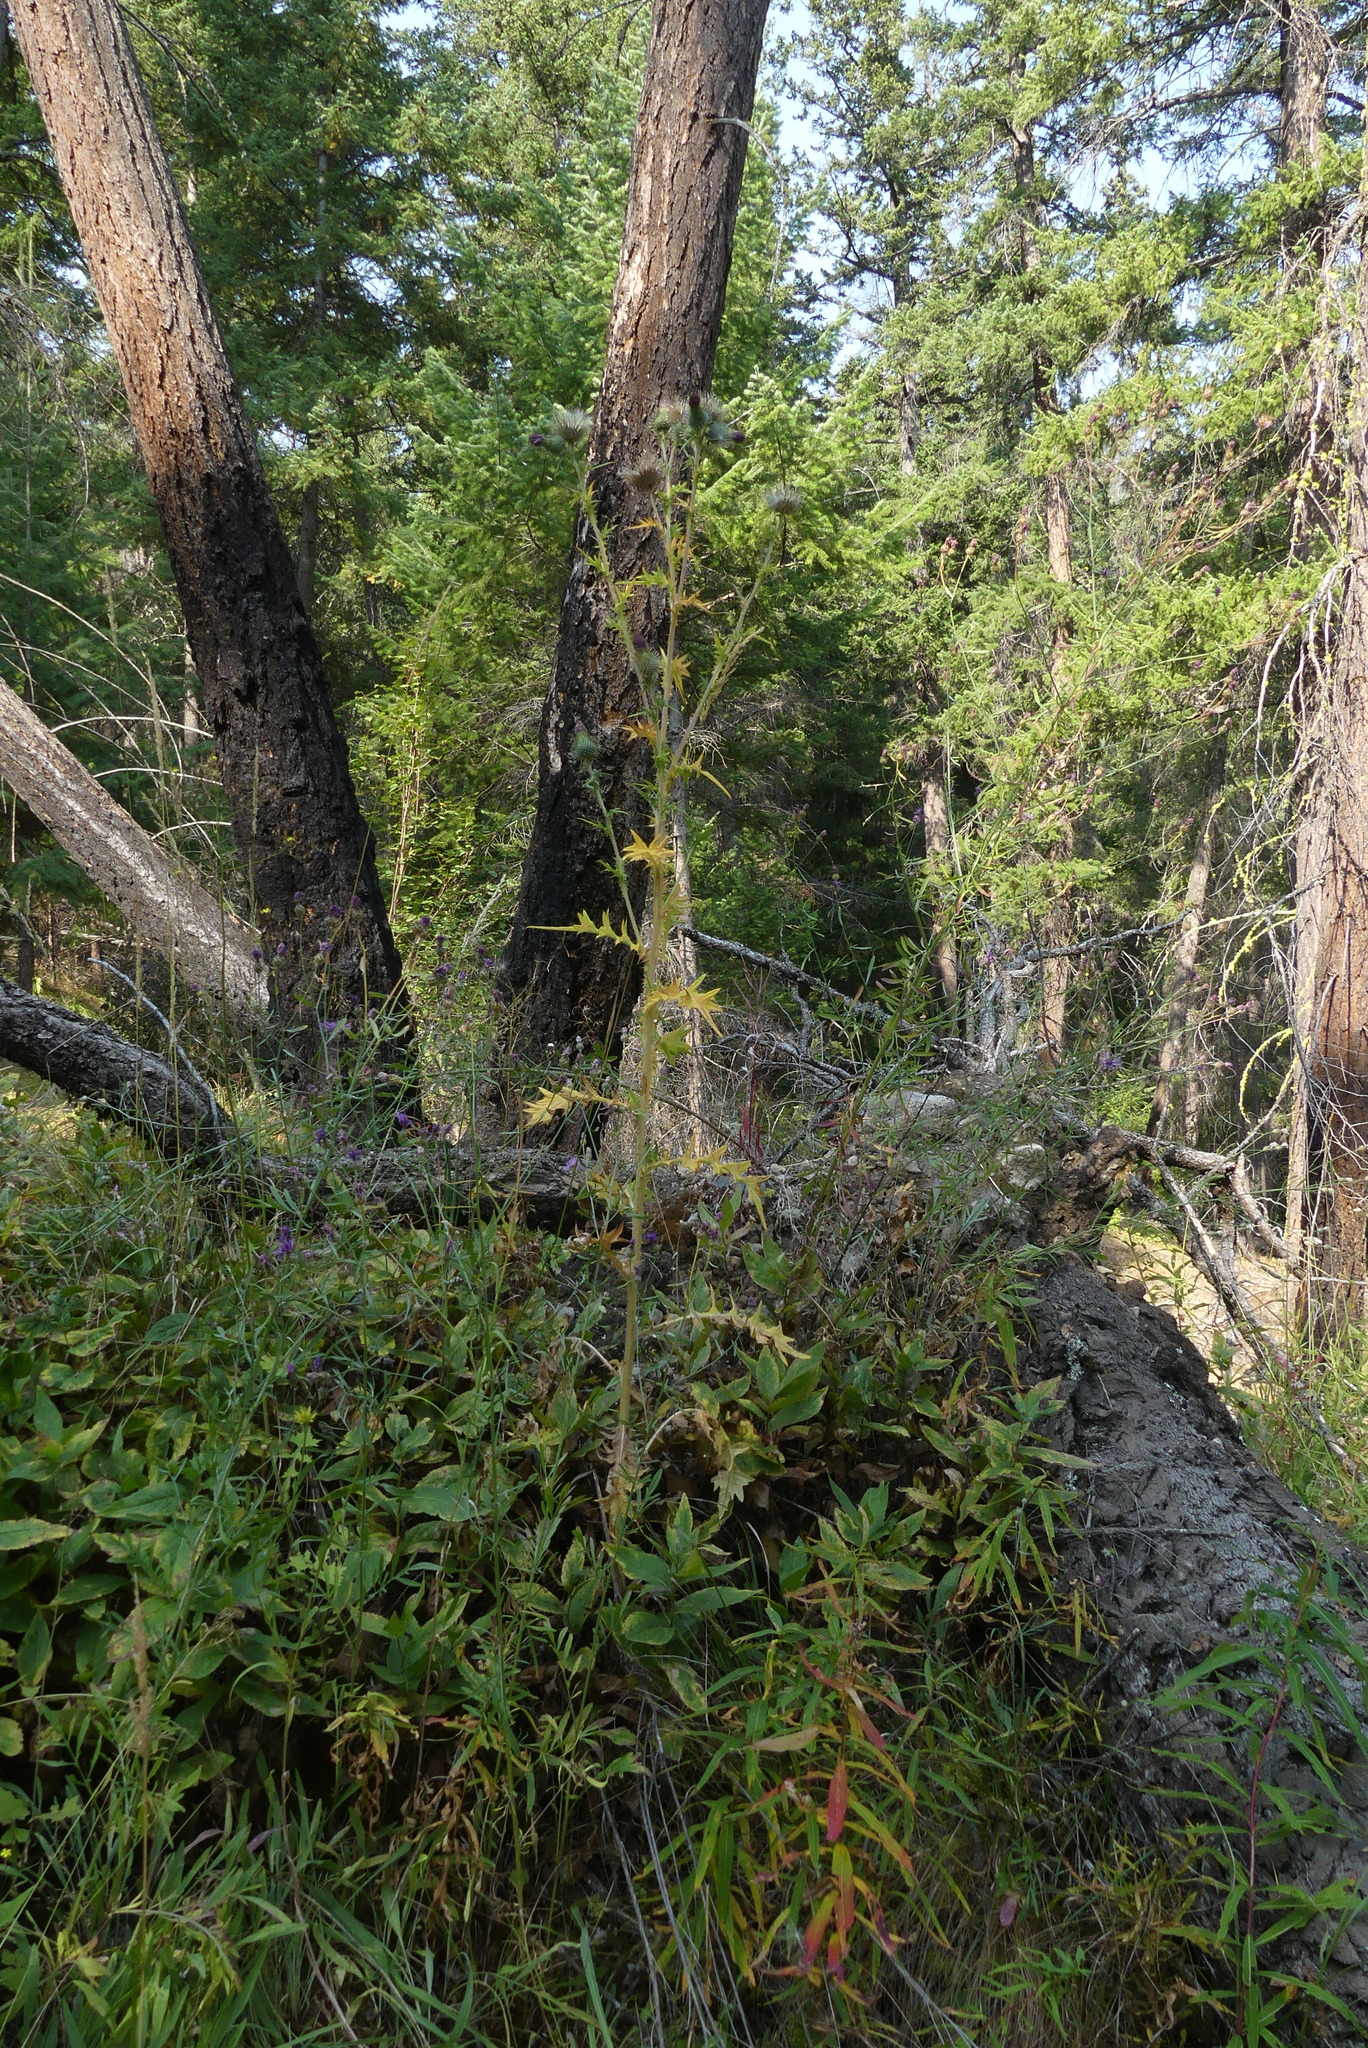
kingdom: Plantae
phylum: Tracheophyta
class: Magnoliopsida
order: Asterales
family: Asteraceae
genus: Cirsium
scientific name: Cirsium vulgare
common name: Bull thistle
